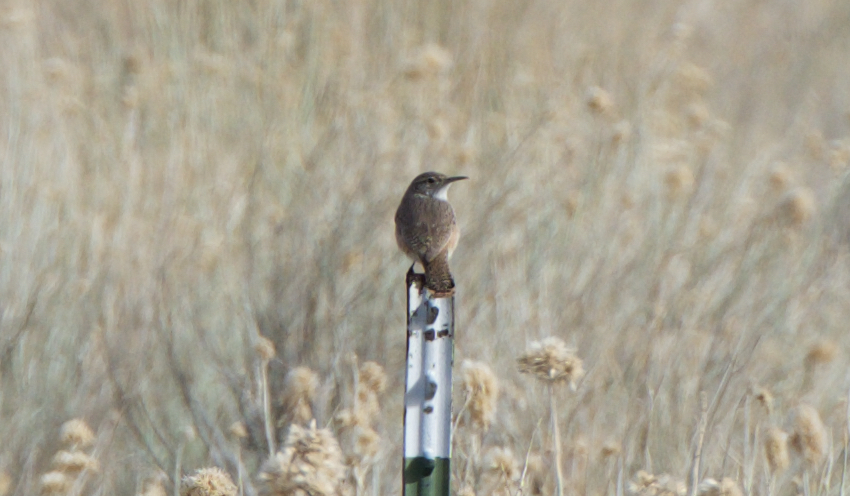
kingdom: Animalia
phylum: Chordata
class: Aves
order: Passeriformes
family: Troglodytidae
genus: Salpinctes
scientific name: Salpinctes obsoletus
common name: Rock wren
